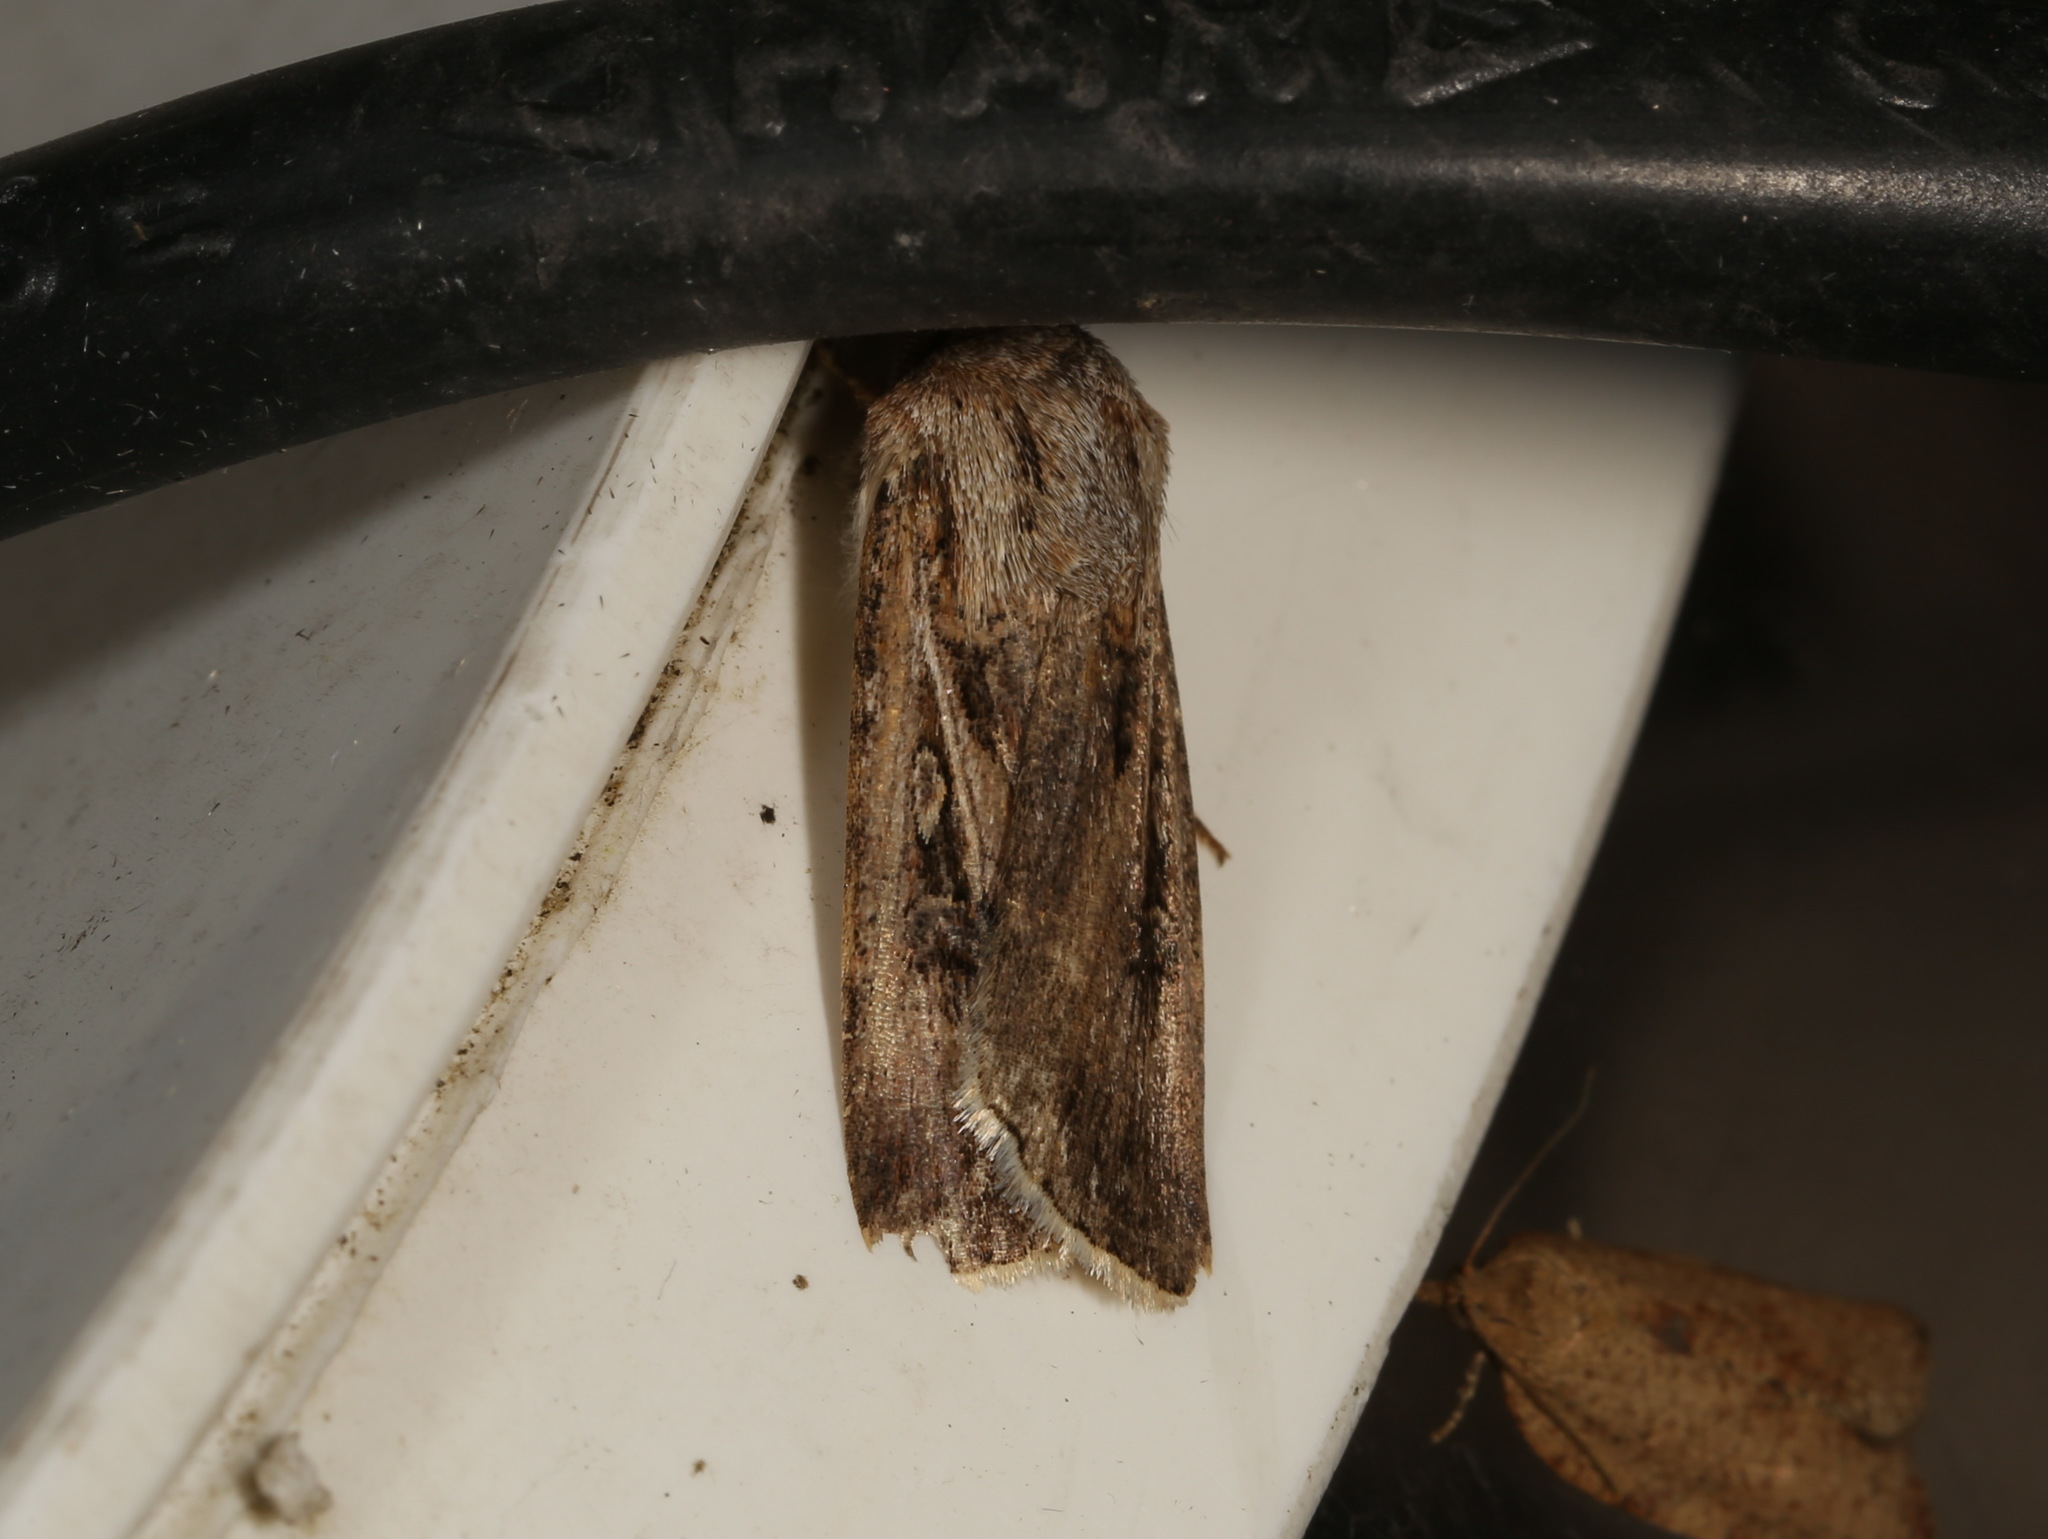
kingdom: Animalia
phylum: Arthropoda
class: Insecta
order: Lepidoptera
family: Noctuidae
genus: Agrotis
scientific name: Agrotis munda
